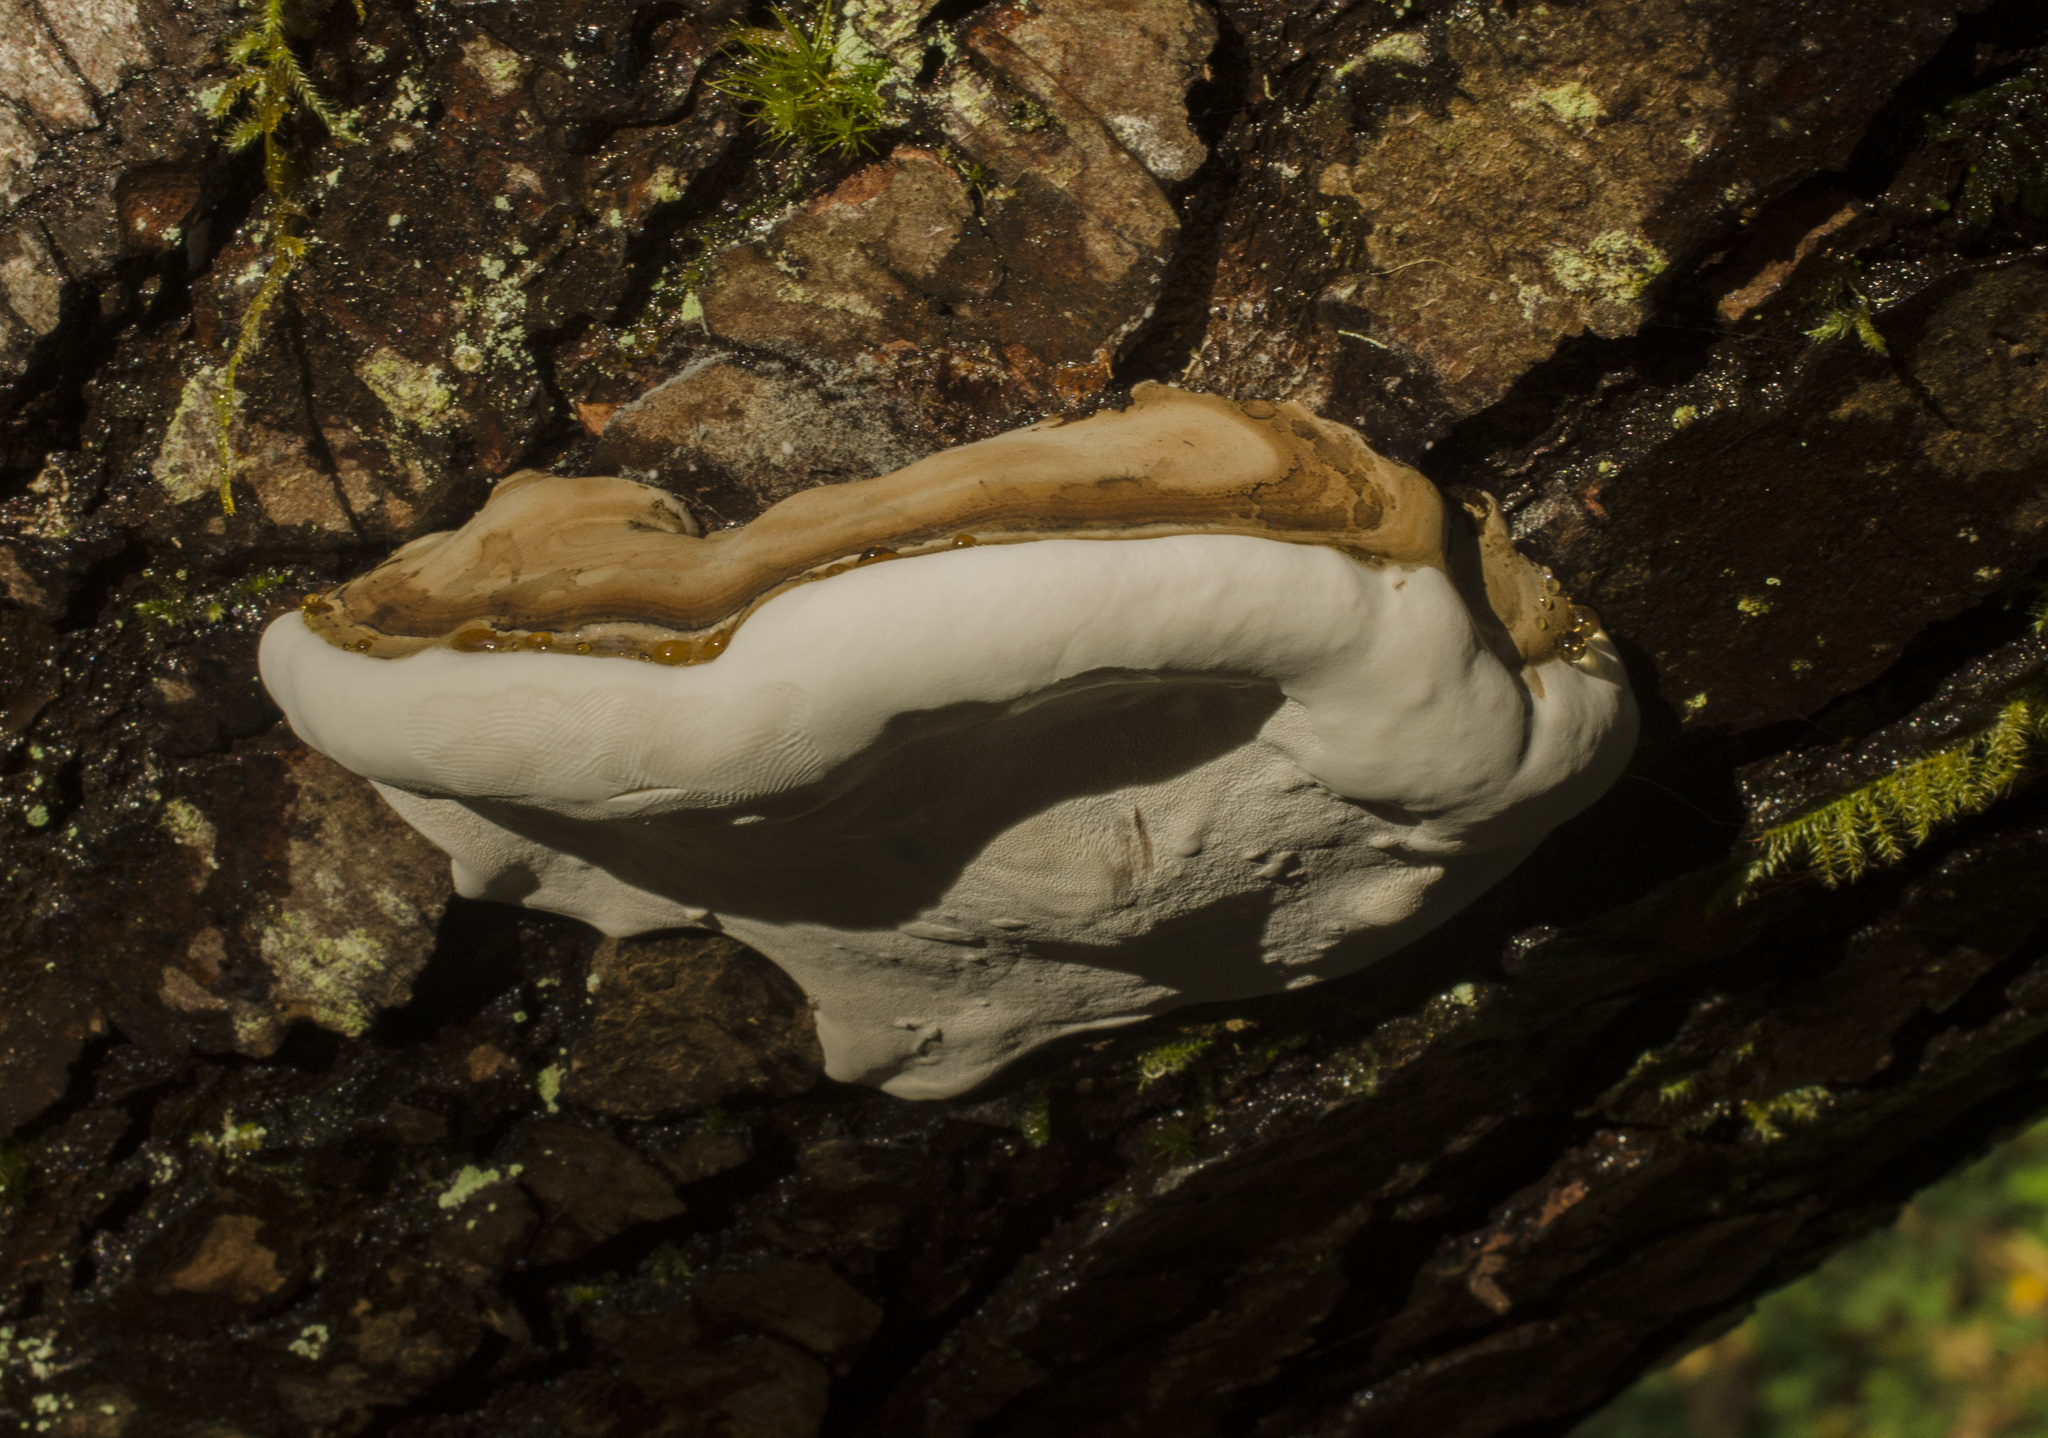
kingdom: Fungi
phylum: Basidiomycota
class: Agaricomycetes
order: Polyporales
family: Polyporaceae
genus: Ganoderma
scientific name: Ganoderma applanatum
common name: Artist's bracket
